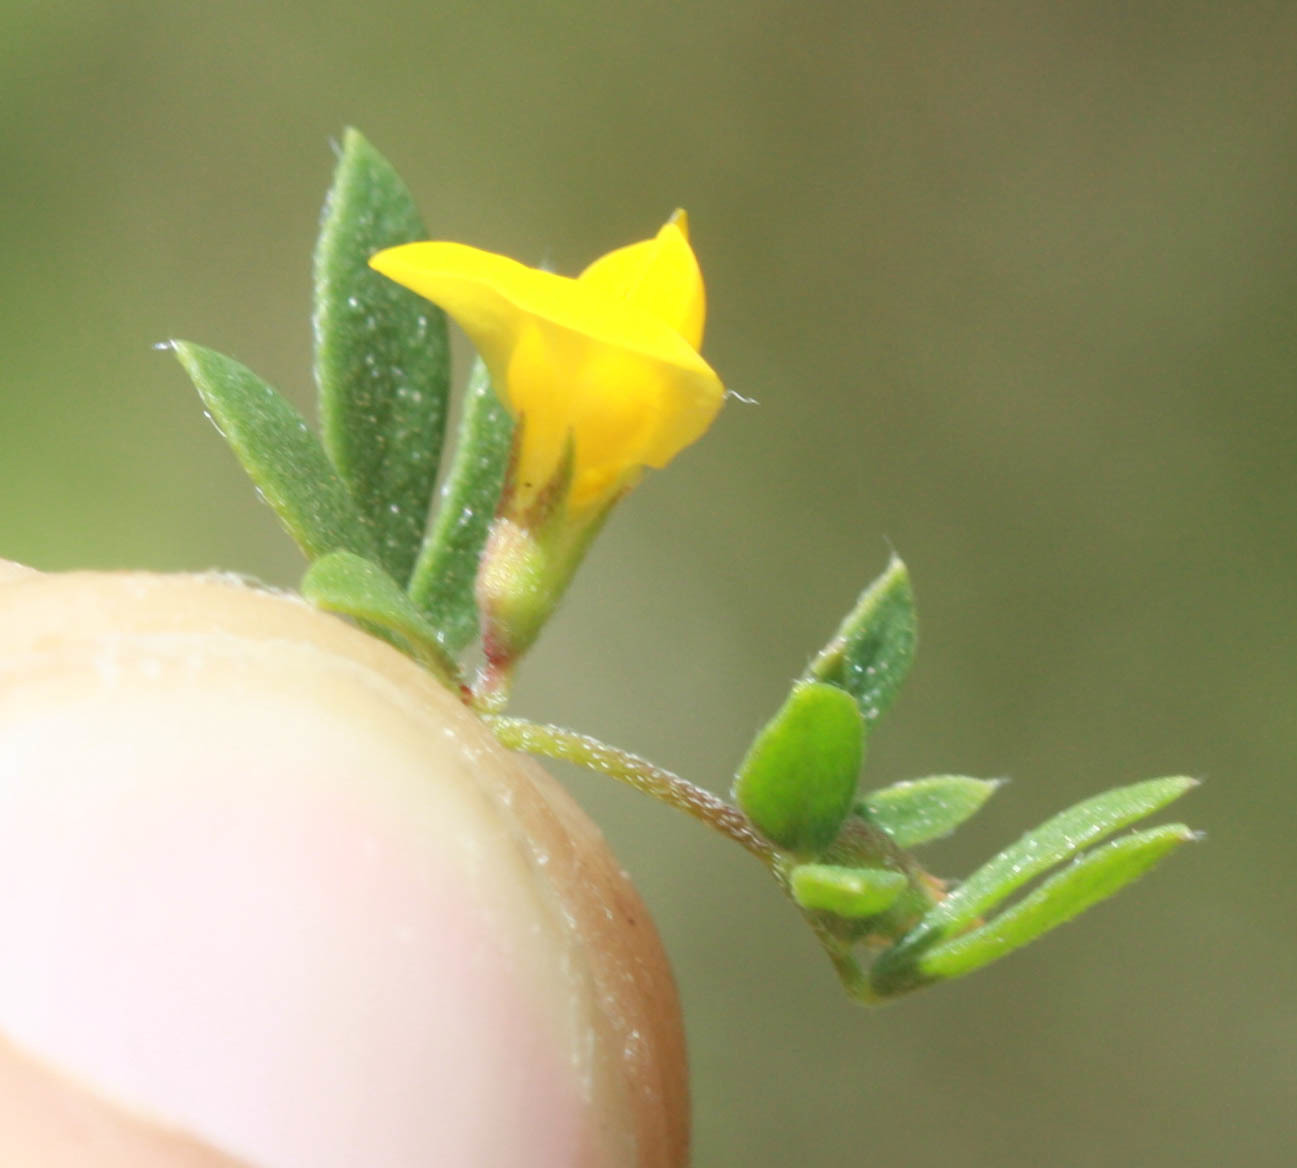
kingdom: Plantae
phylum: Tracheophyta
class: Magnoliopsida
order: Fabales
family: Fabaceae
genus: Acmispon
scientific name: Acmispon wrangelianus
